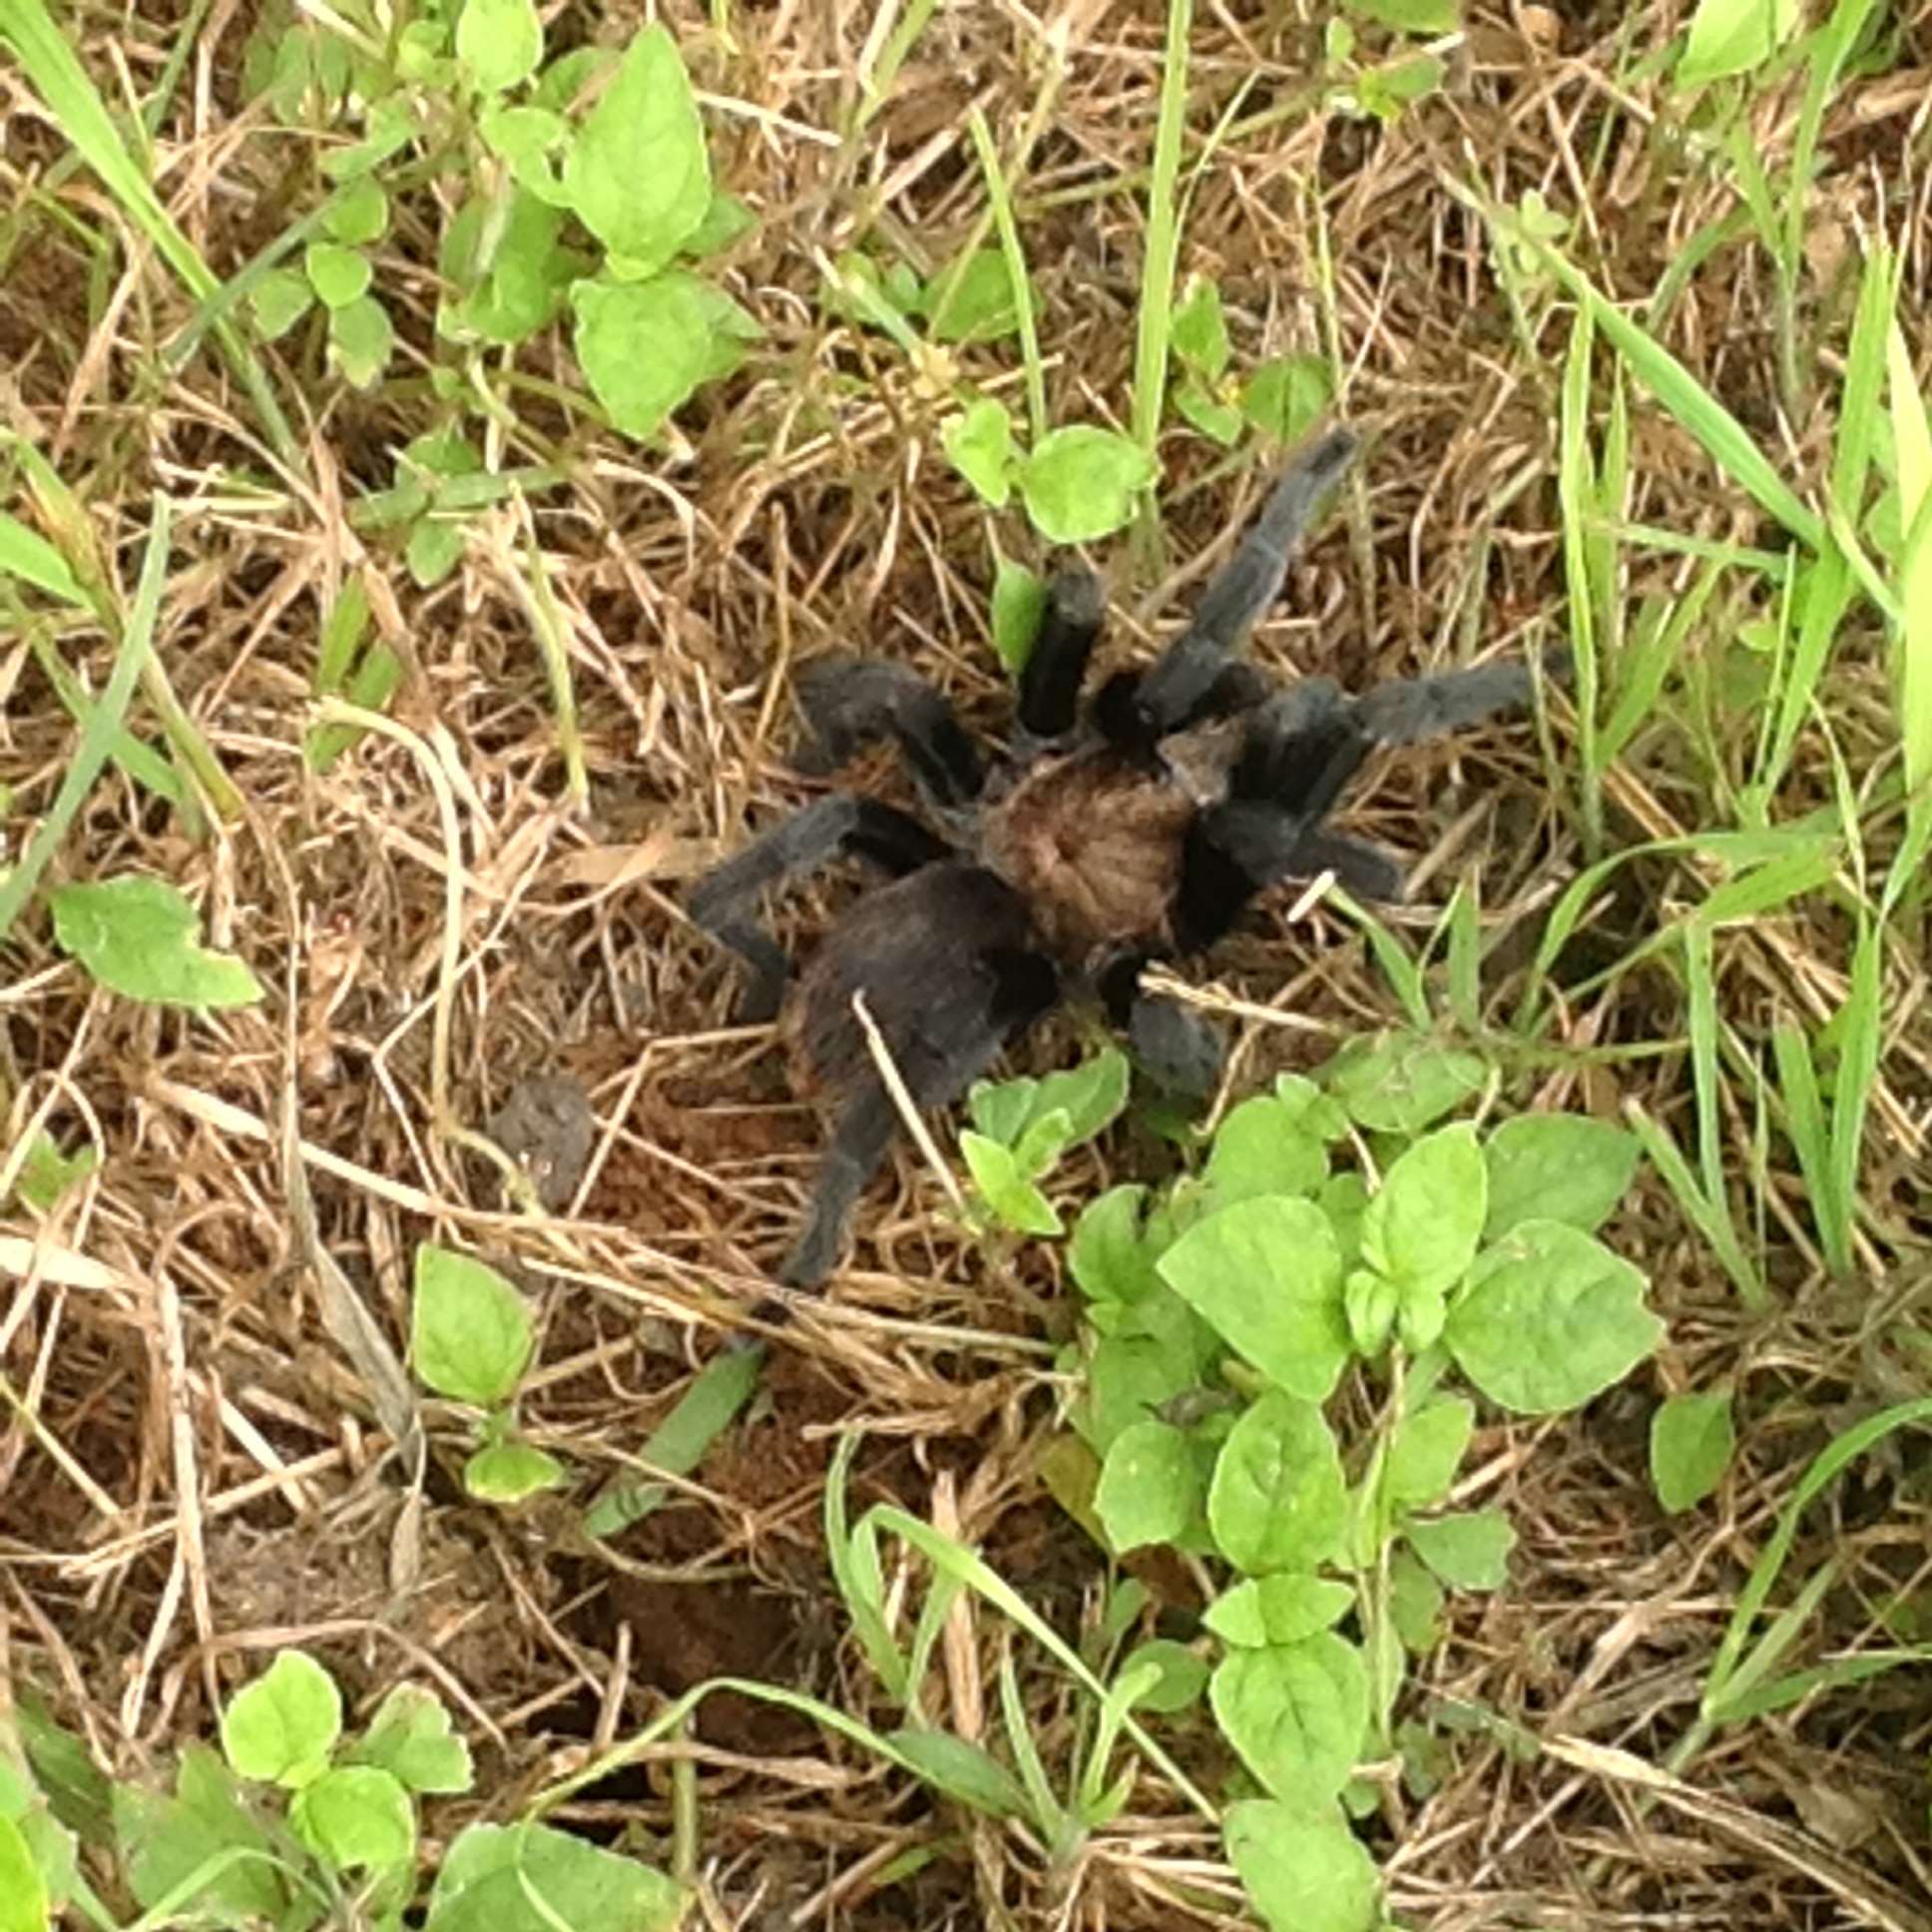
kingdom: Animalia
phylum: Arthropoda
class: Arachnida
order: Araneae
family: Theraphosidae
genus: Aphonopelma
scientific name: Aphonopelma anax
